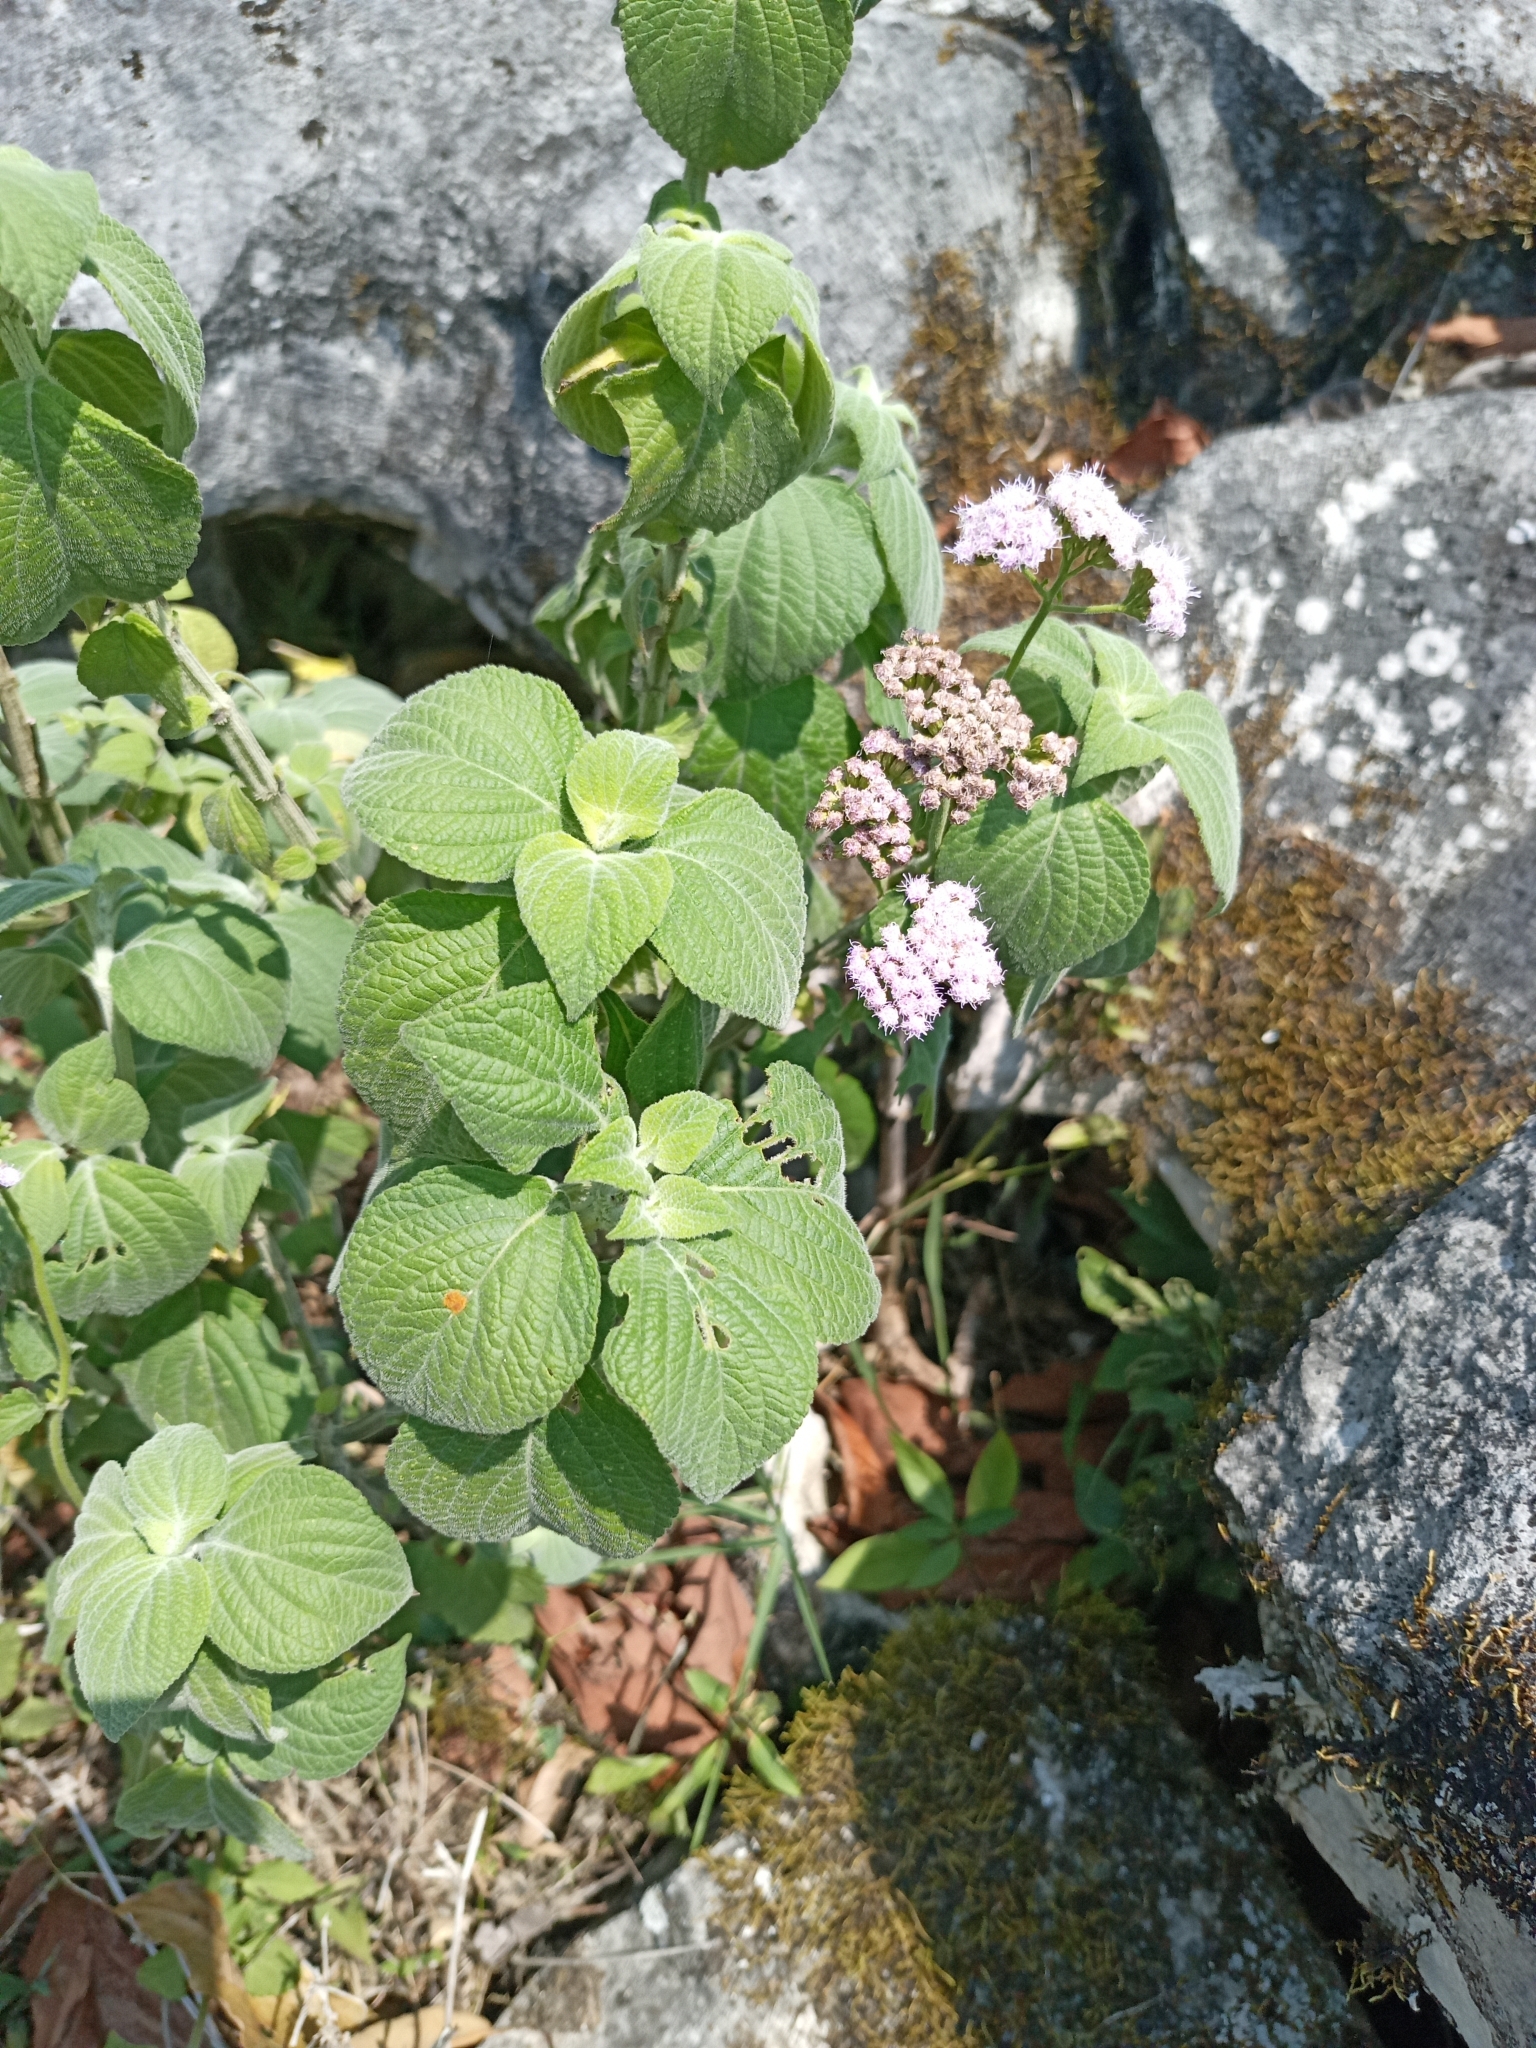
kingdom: Plantae
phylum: Tracheophyta
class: Magnoliopsida
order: Asterales
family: Asteraceae
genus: Fleischmannia
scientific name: Fleischmannia pycnocephala
